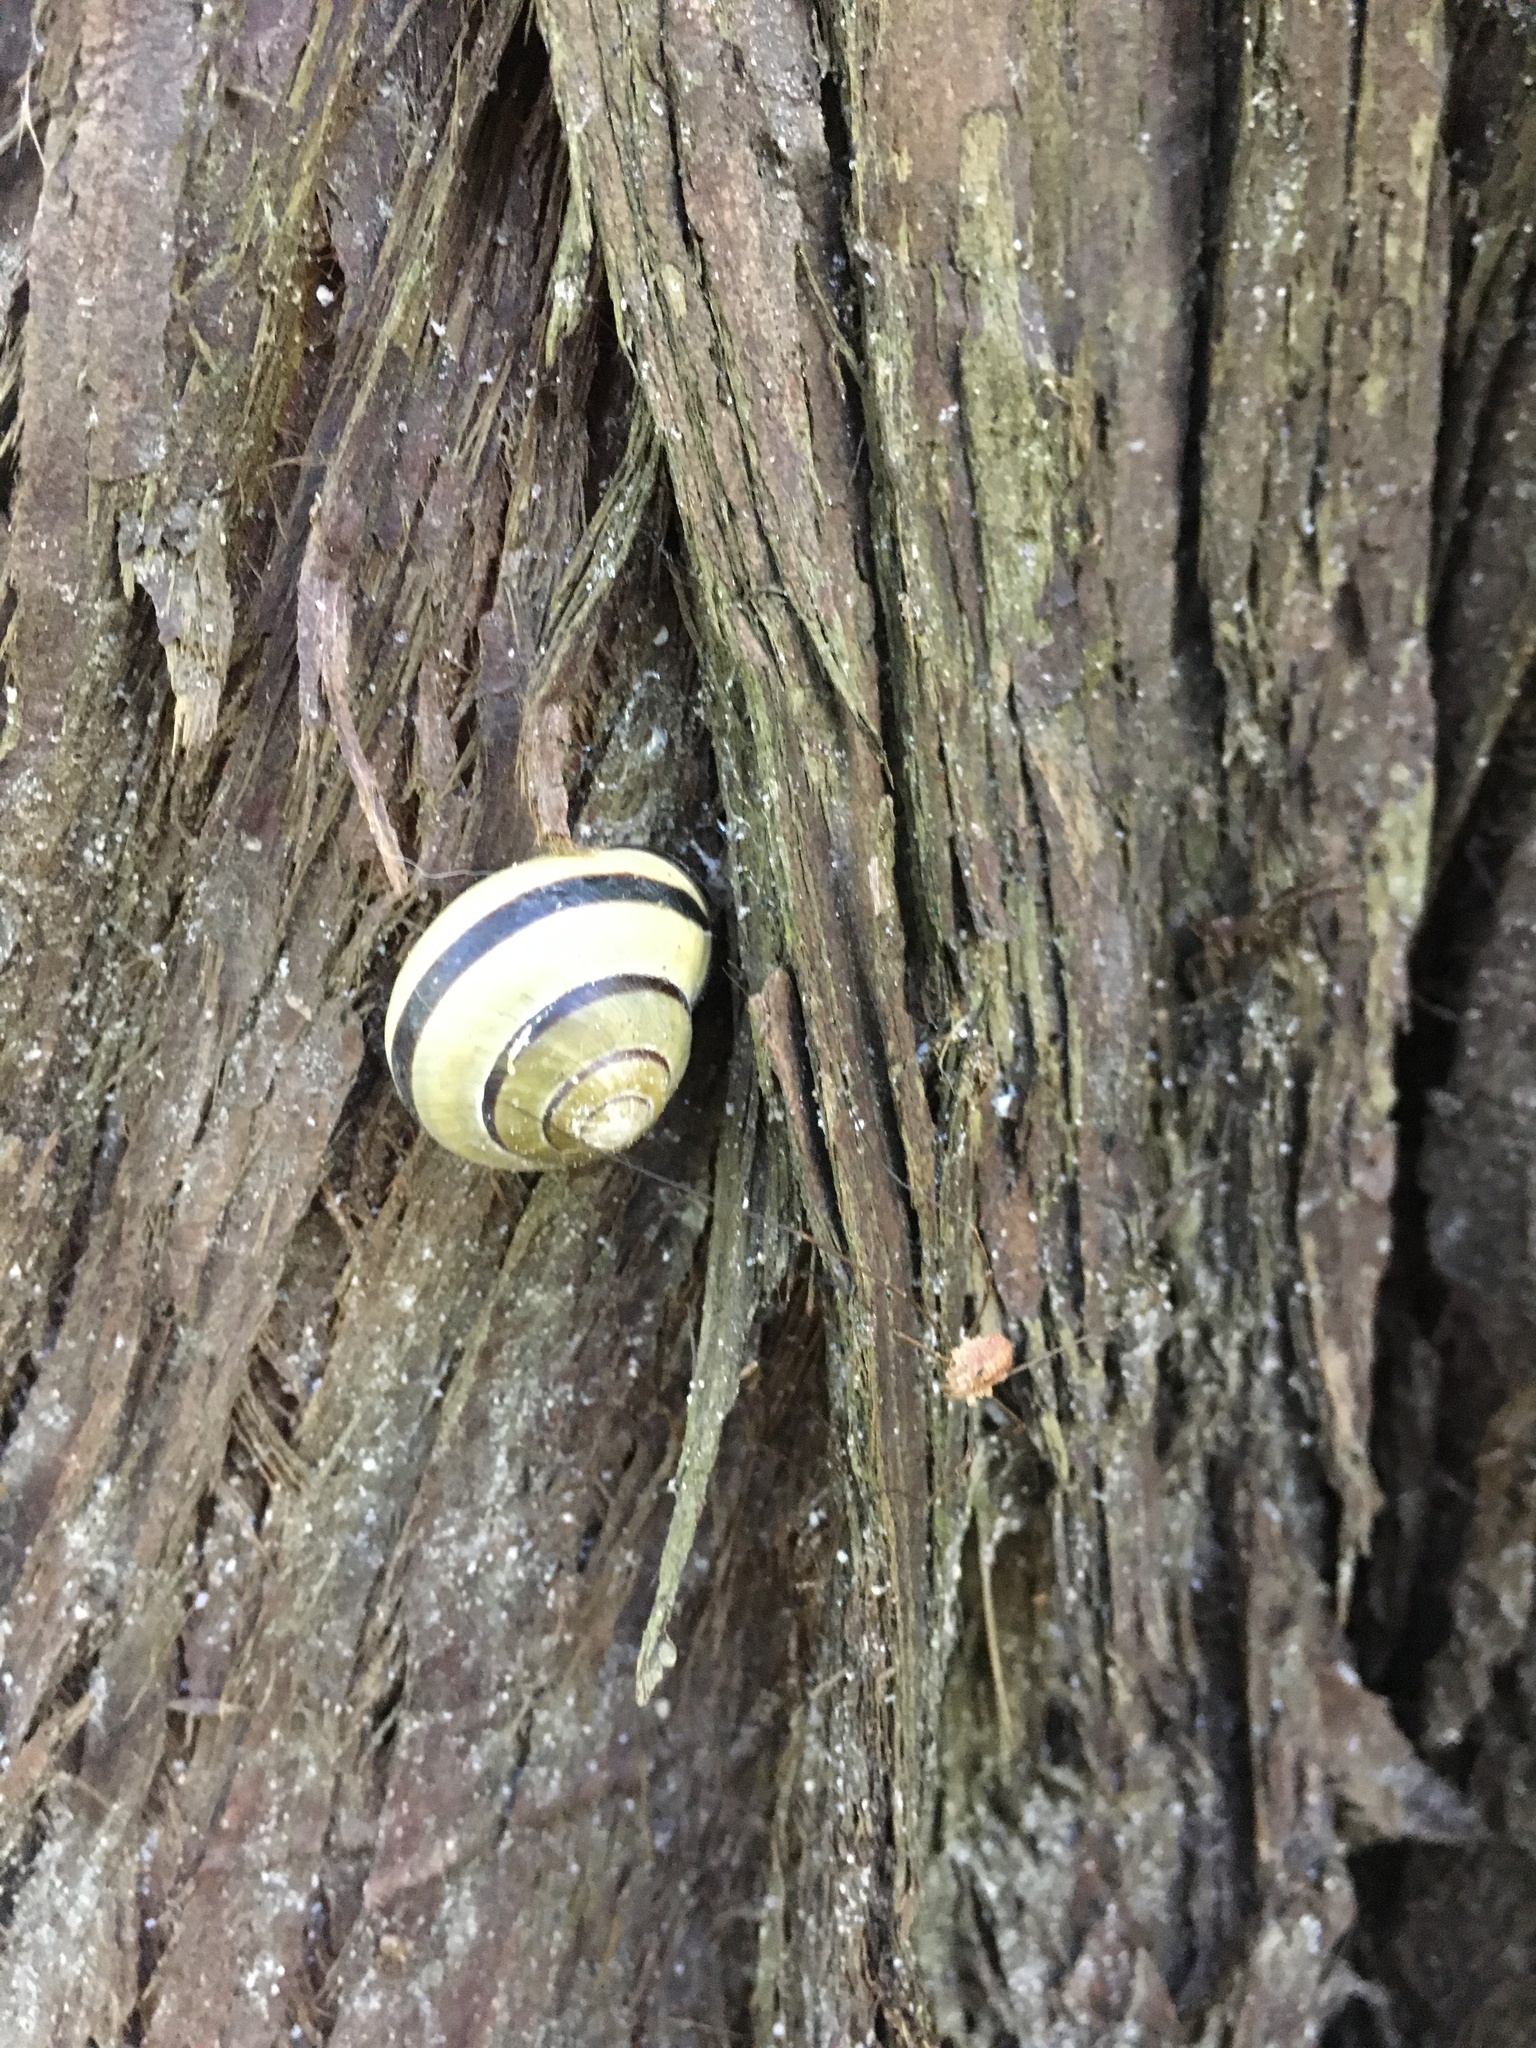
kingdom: Animalia
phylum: Mollusca
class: Gastropoda
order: Stylommatophora
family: Helicidae
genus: Cepaea
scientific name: Cepaea nemoralis
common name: Grovesnail
